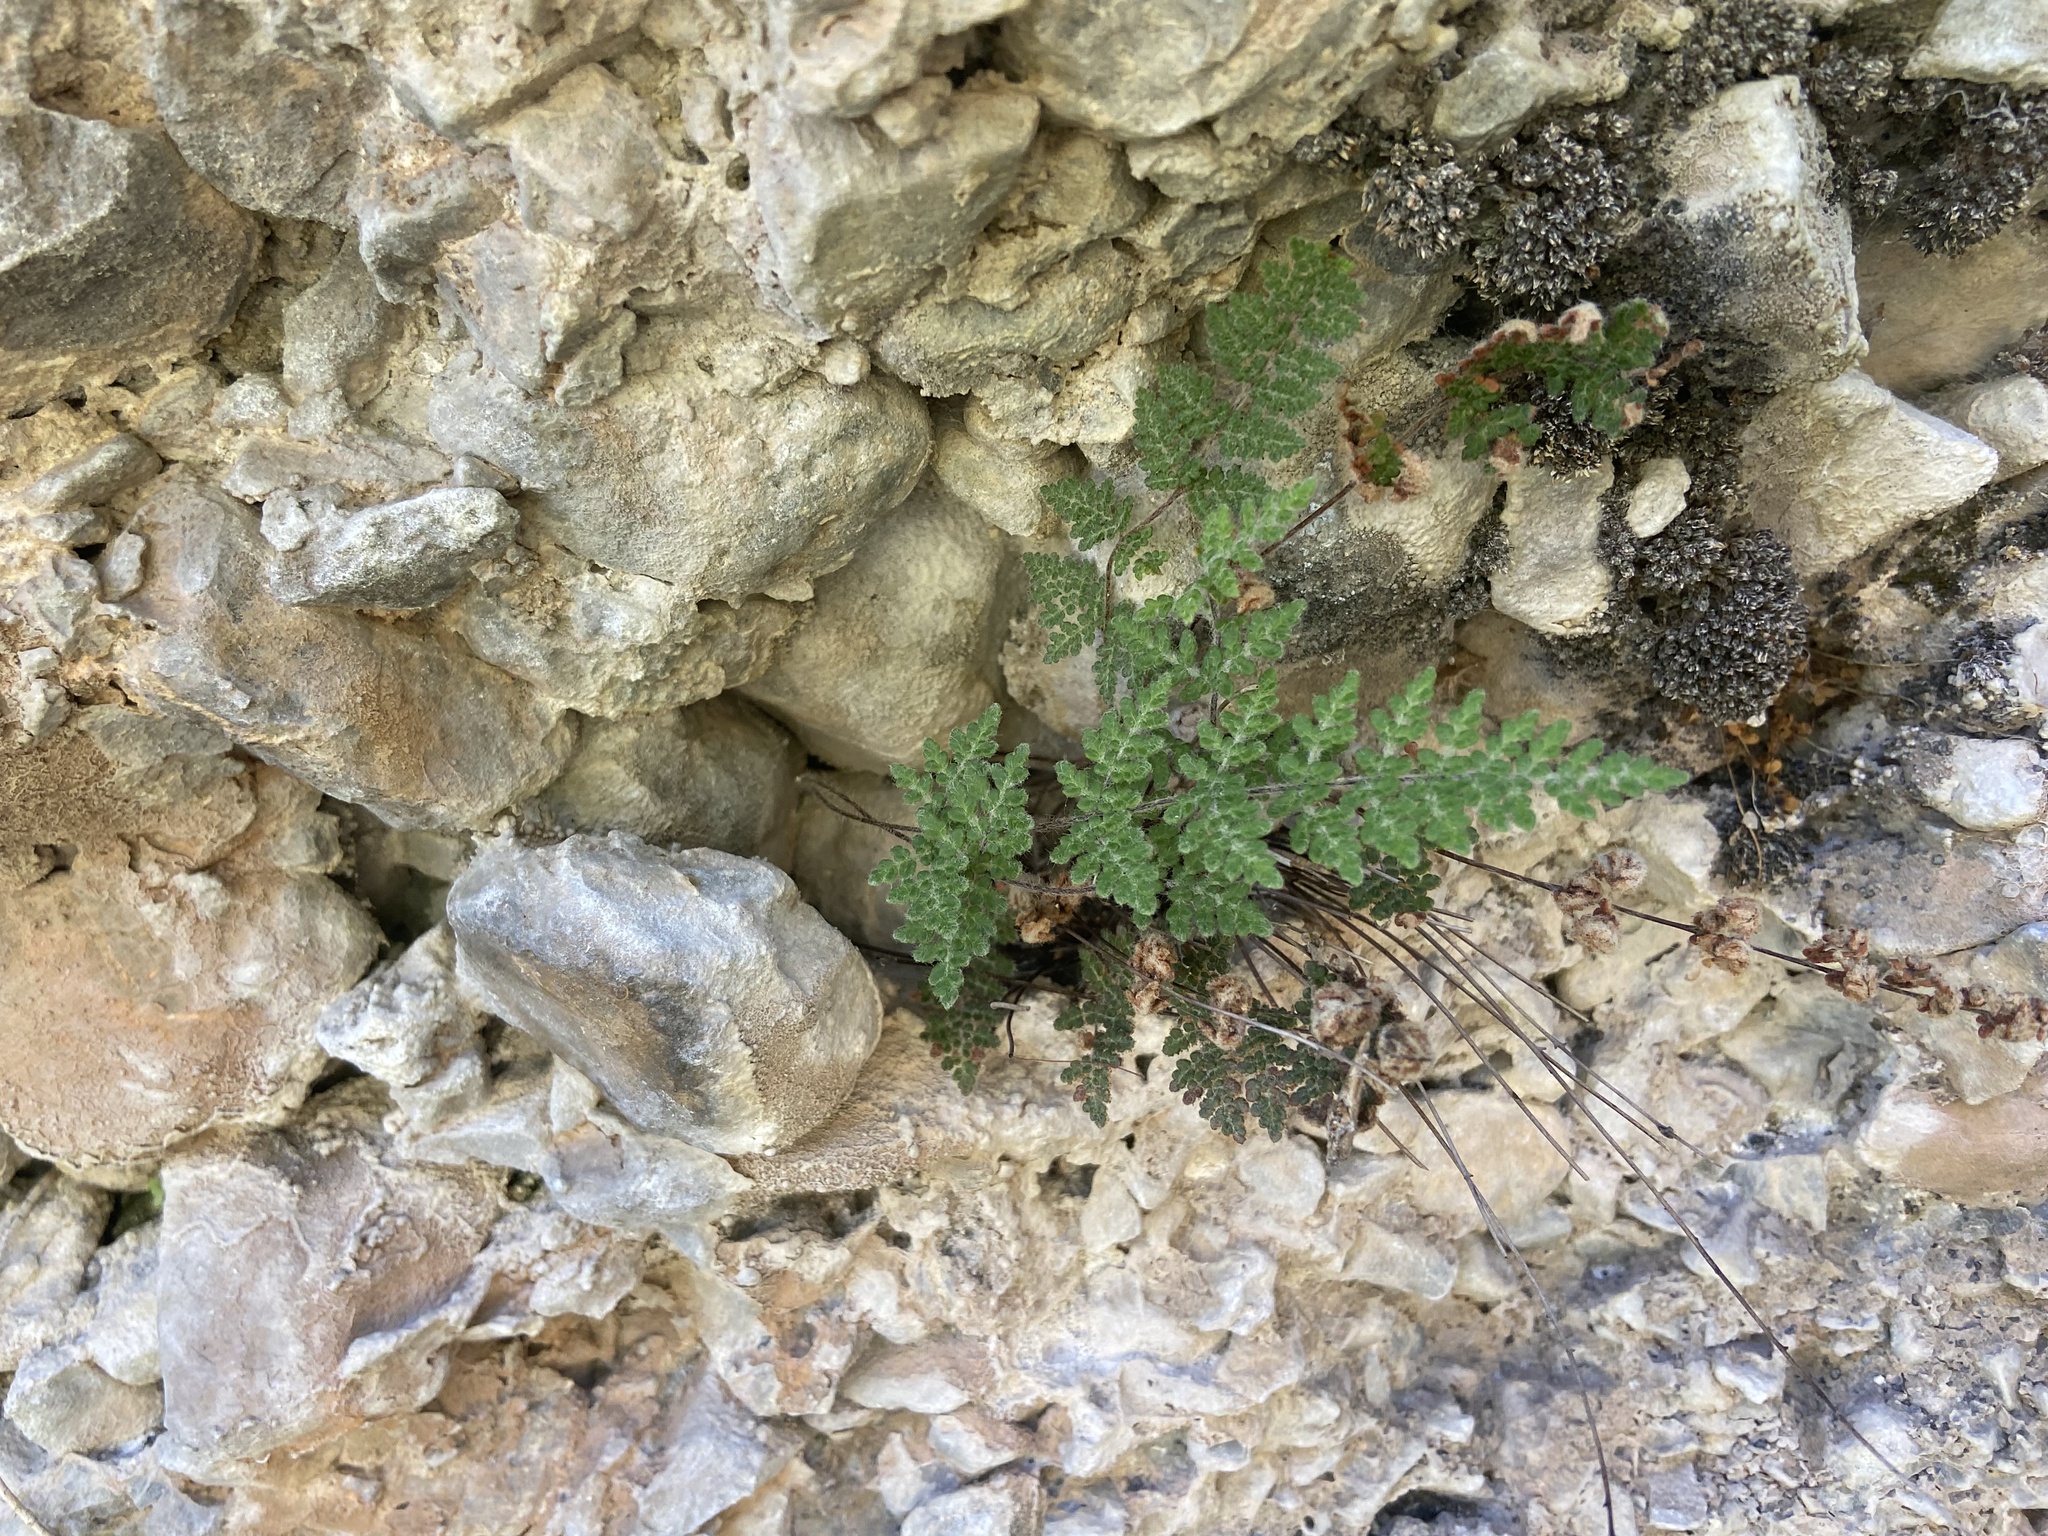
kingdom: Plantae
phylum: Tracheophyta
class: Polypodiopsida
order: Polypodiales
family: Pteridaceae
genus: Myriopteris
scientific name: Myriopteris gracilis
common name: Fee's lip fern
